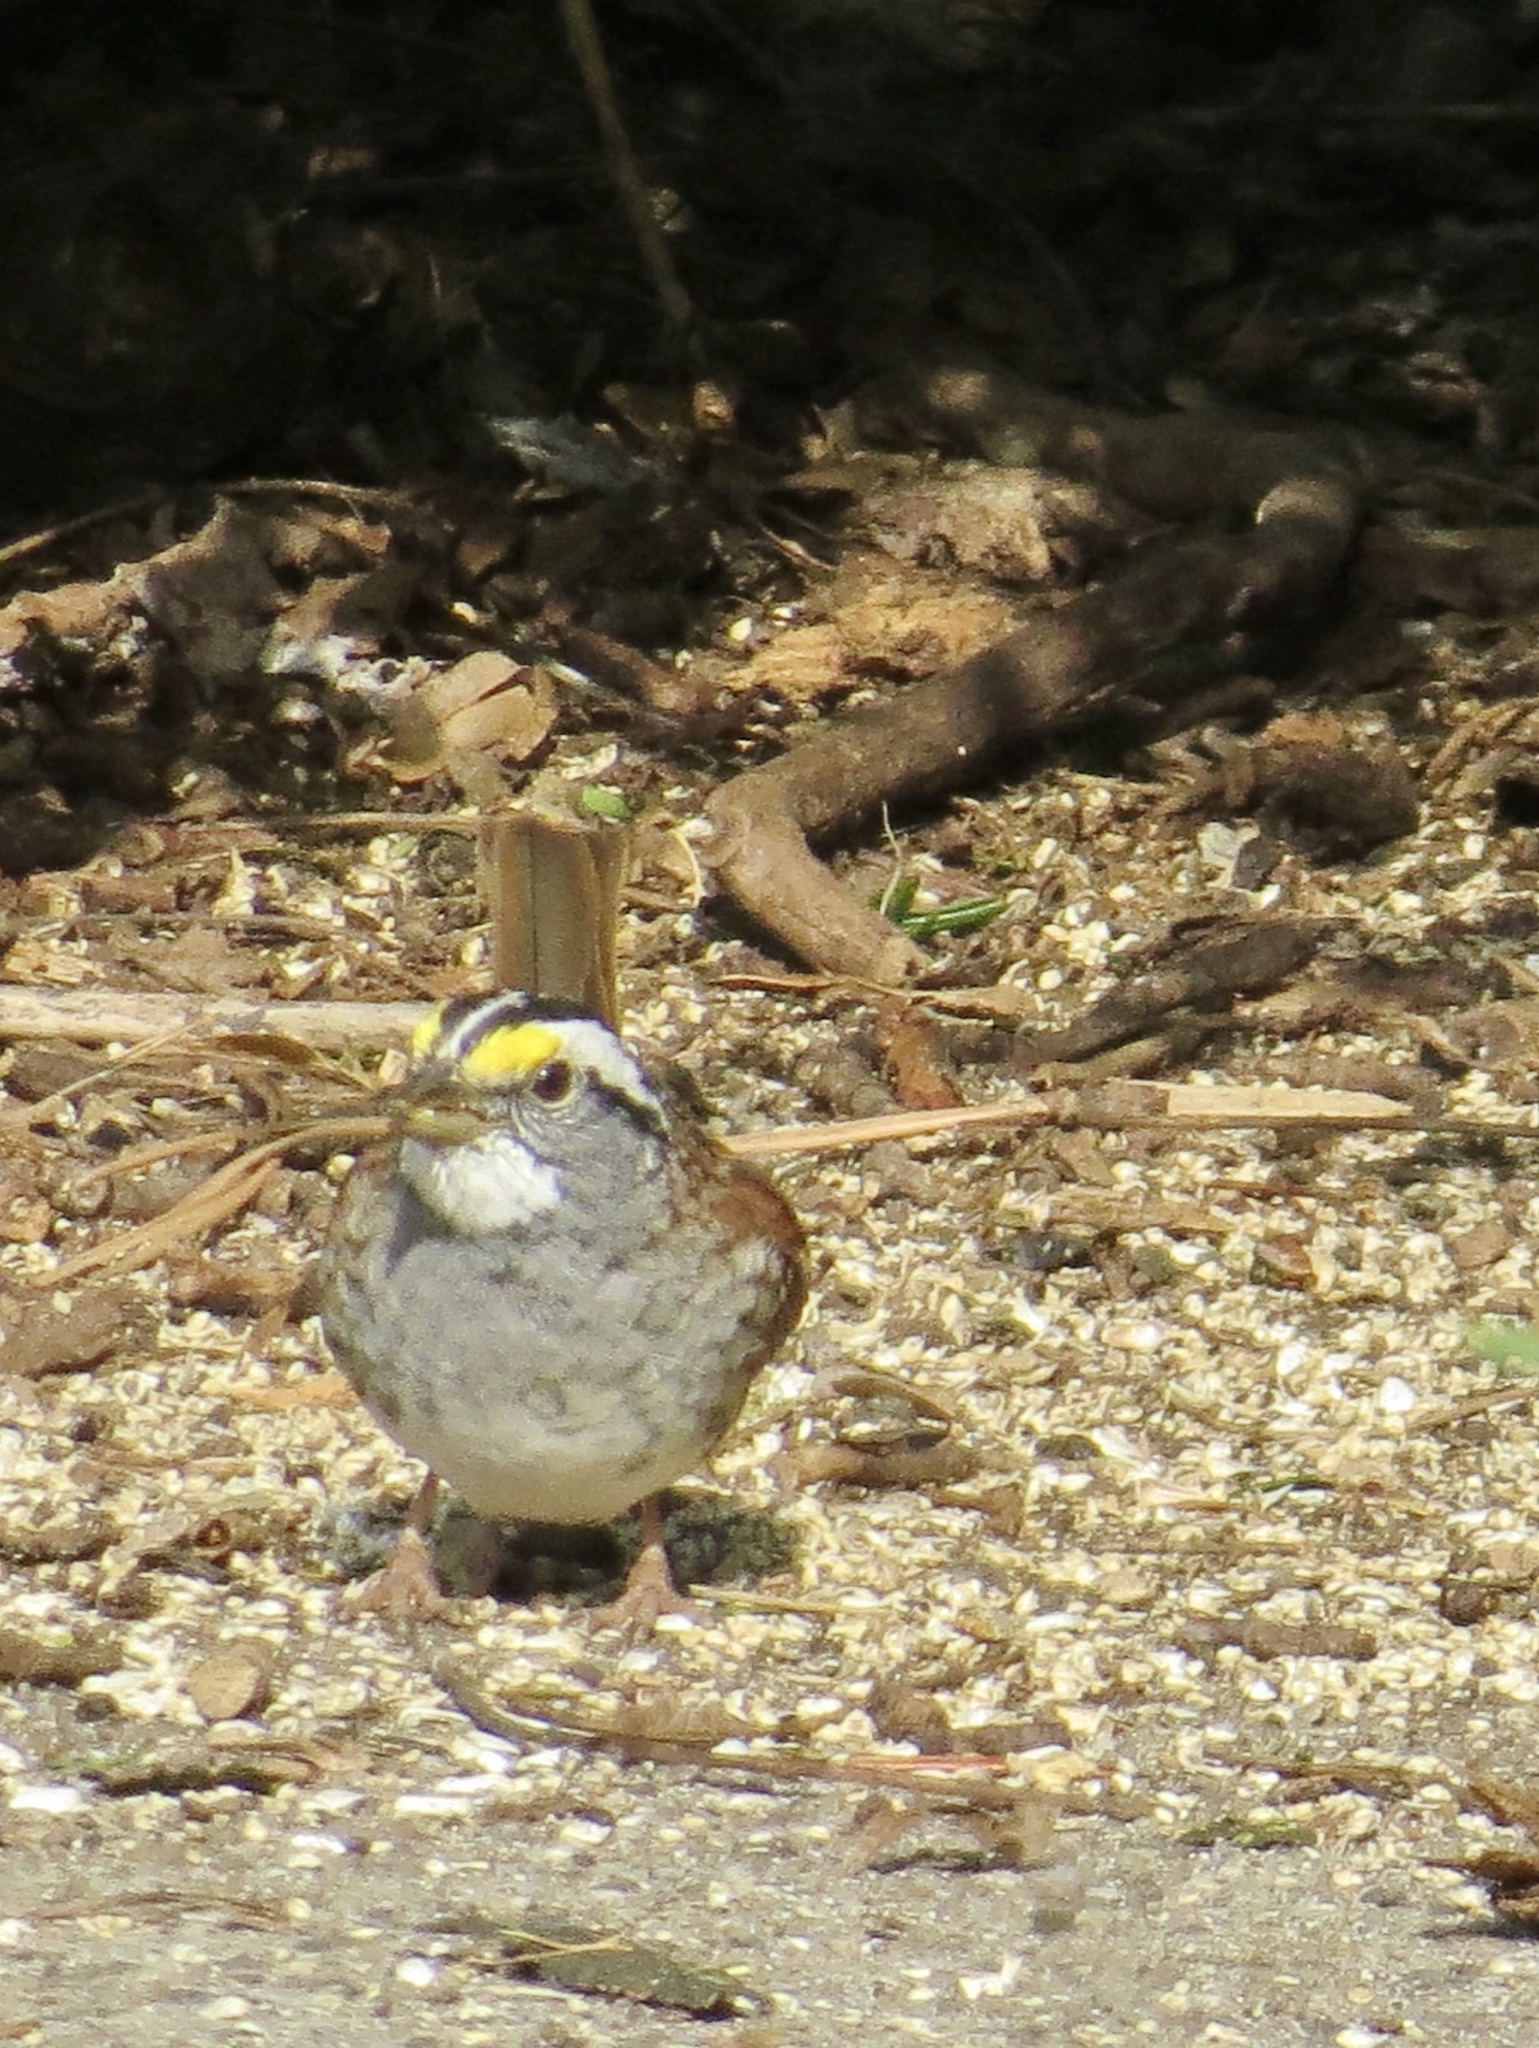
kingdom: Animalia
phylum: Chordata
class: Aves
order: Passeriformes
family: Passerellidae
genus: Zonotrichia
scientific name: Zonotrichia albicollis
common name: White-throated sparrow
